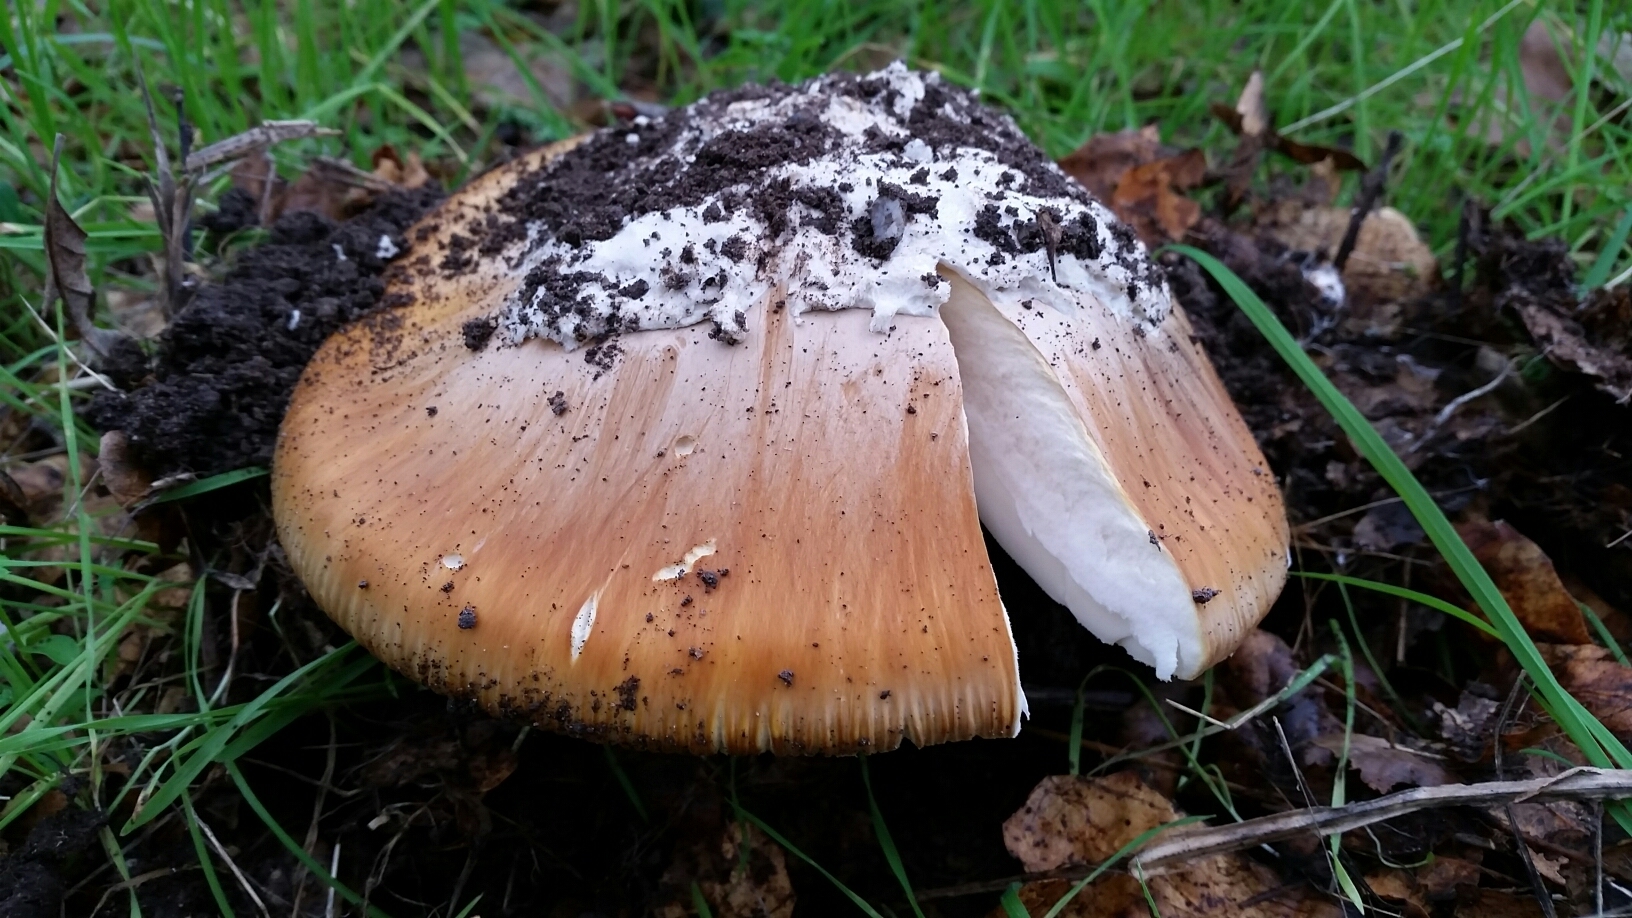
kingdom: Fungi
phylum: Basidiomycota
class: Agaricomycetes
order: Agaricales
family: Amanitaceae
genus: Amanita
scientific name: Amanita calyptroderma
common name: Coccora
